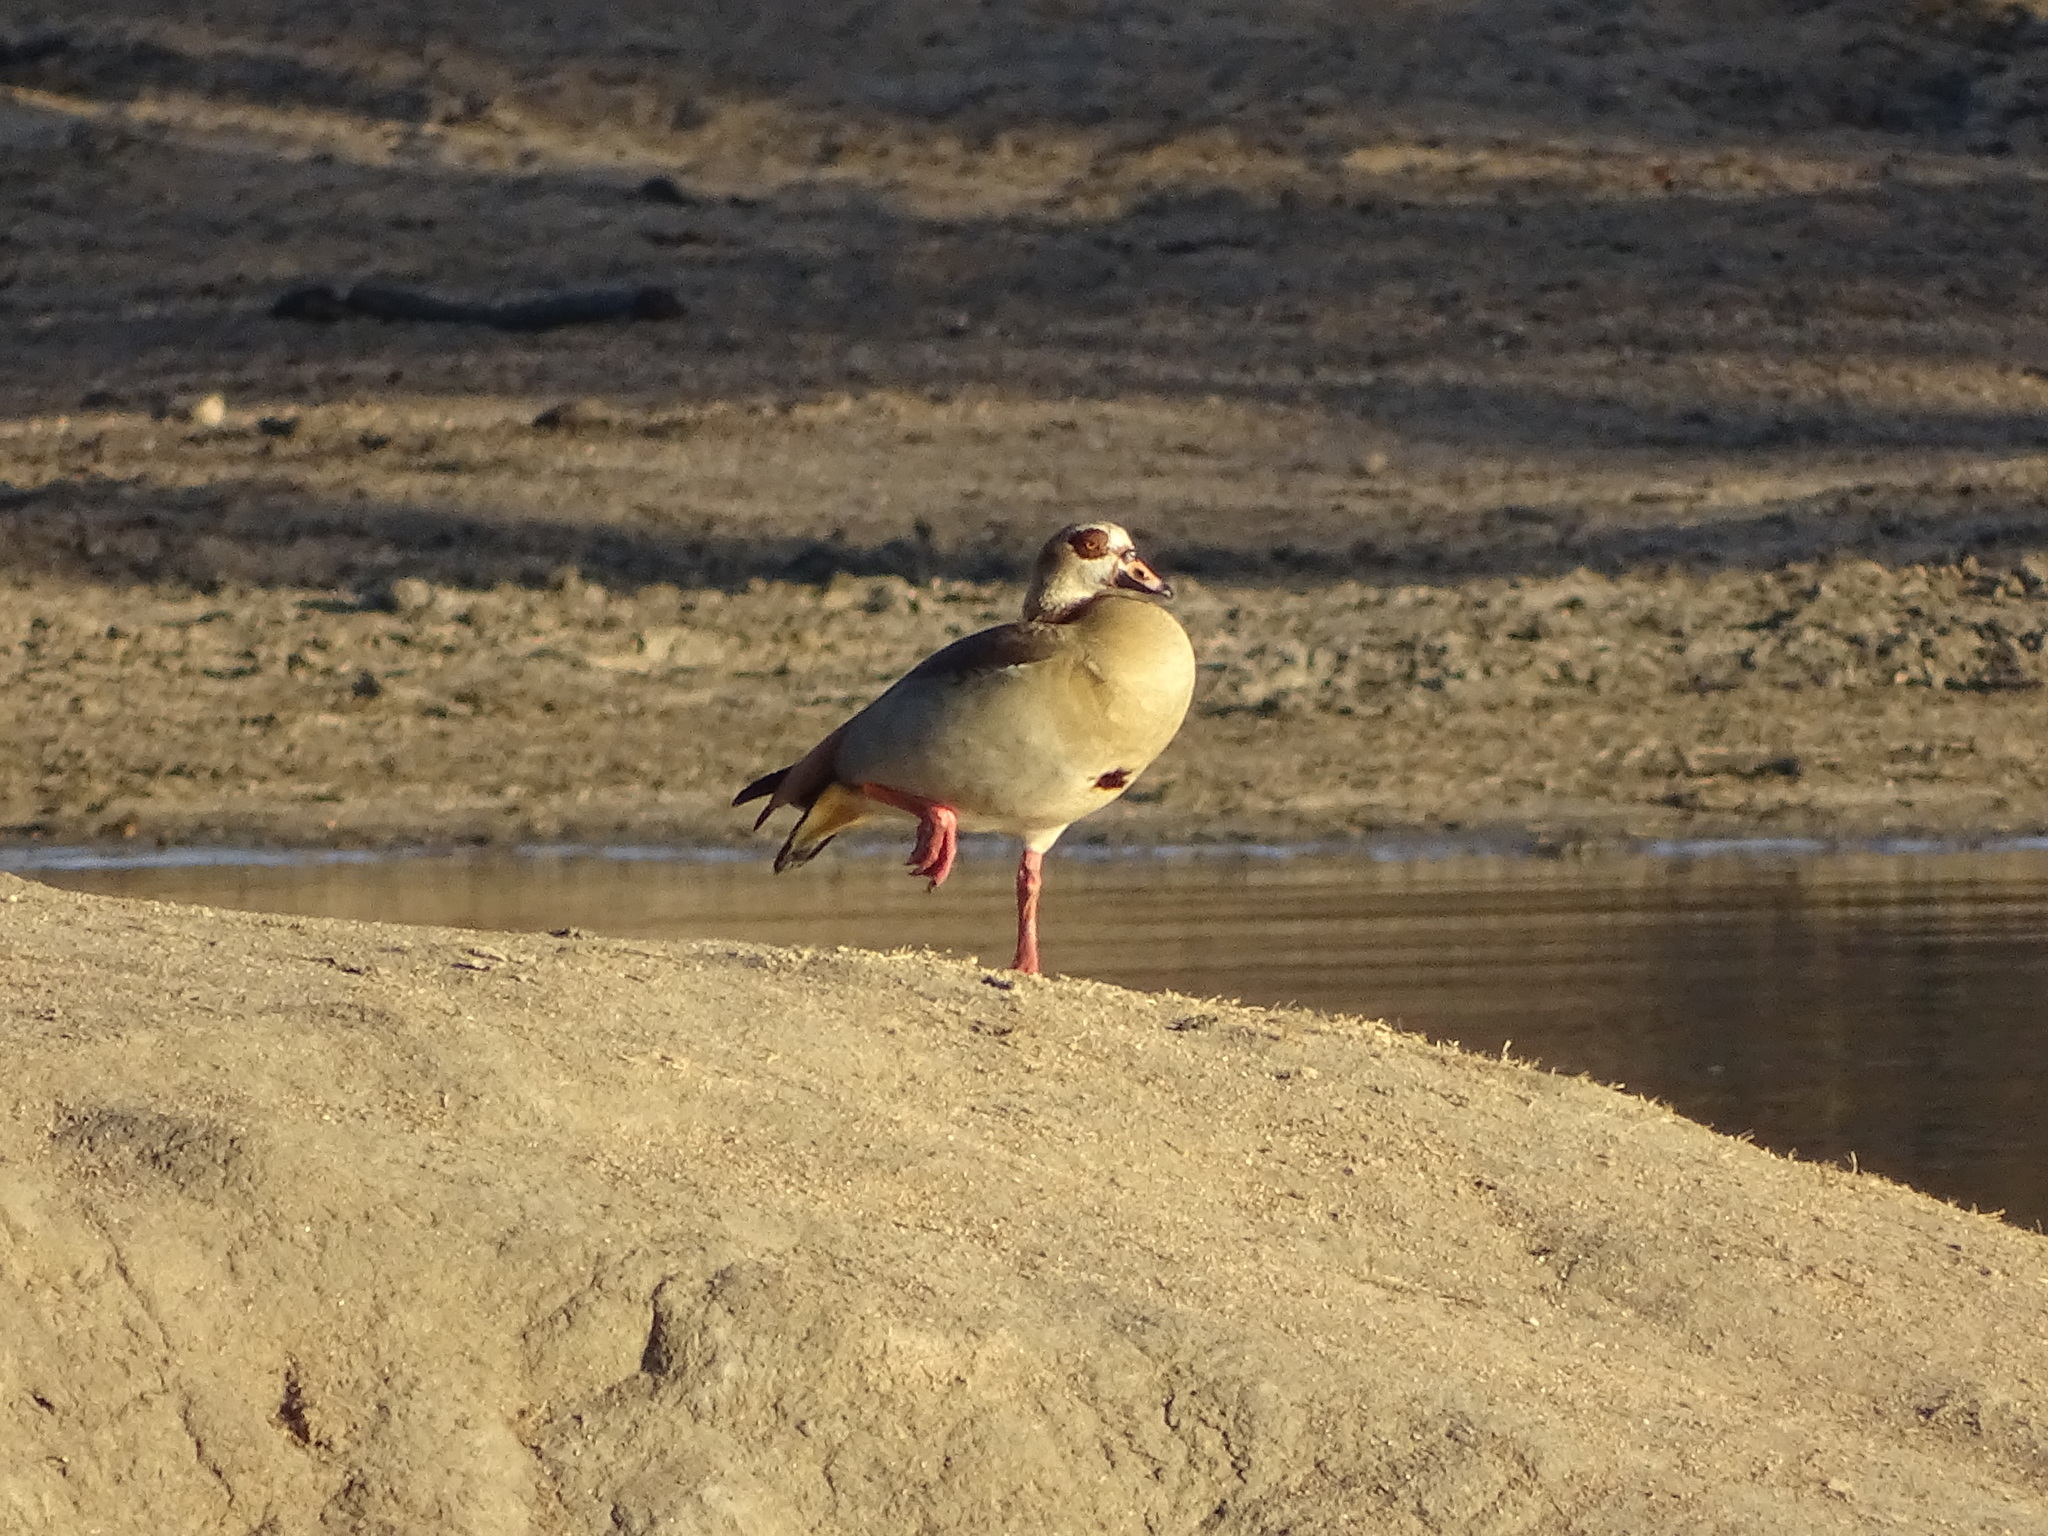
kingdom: Animalia
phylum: Chordata
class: Aves
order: Anseriformes
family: Anatidae
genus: Alopochen
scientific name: Alopochen aegyptiaca
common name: Egyptian goose
